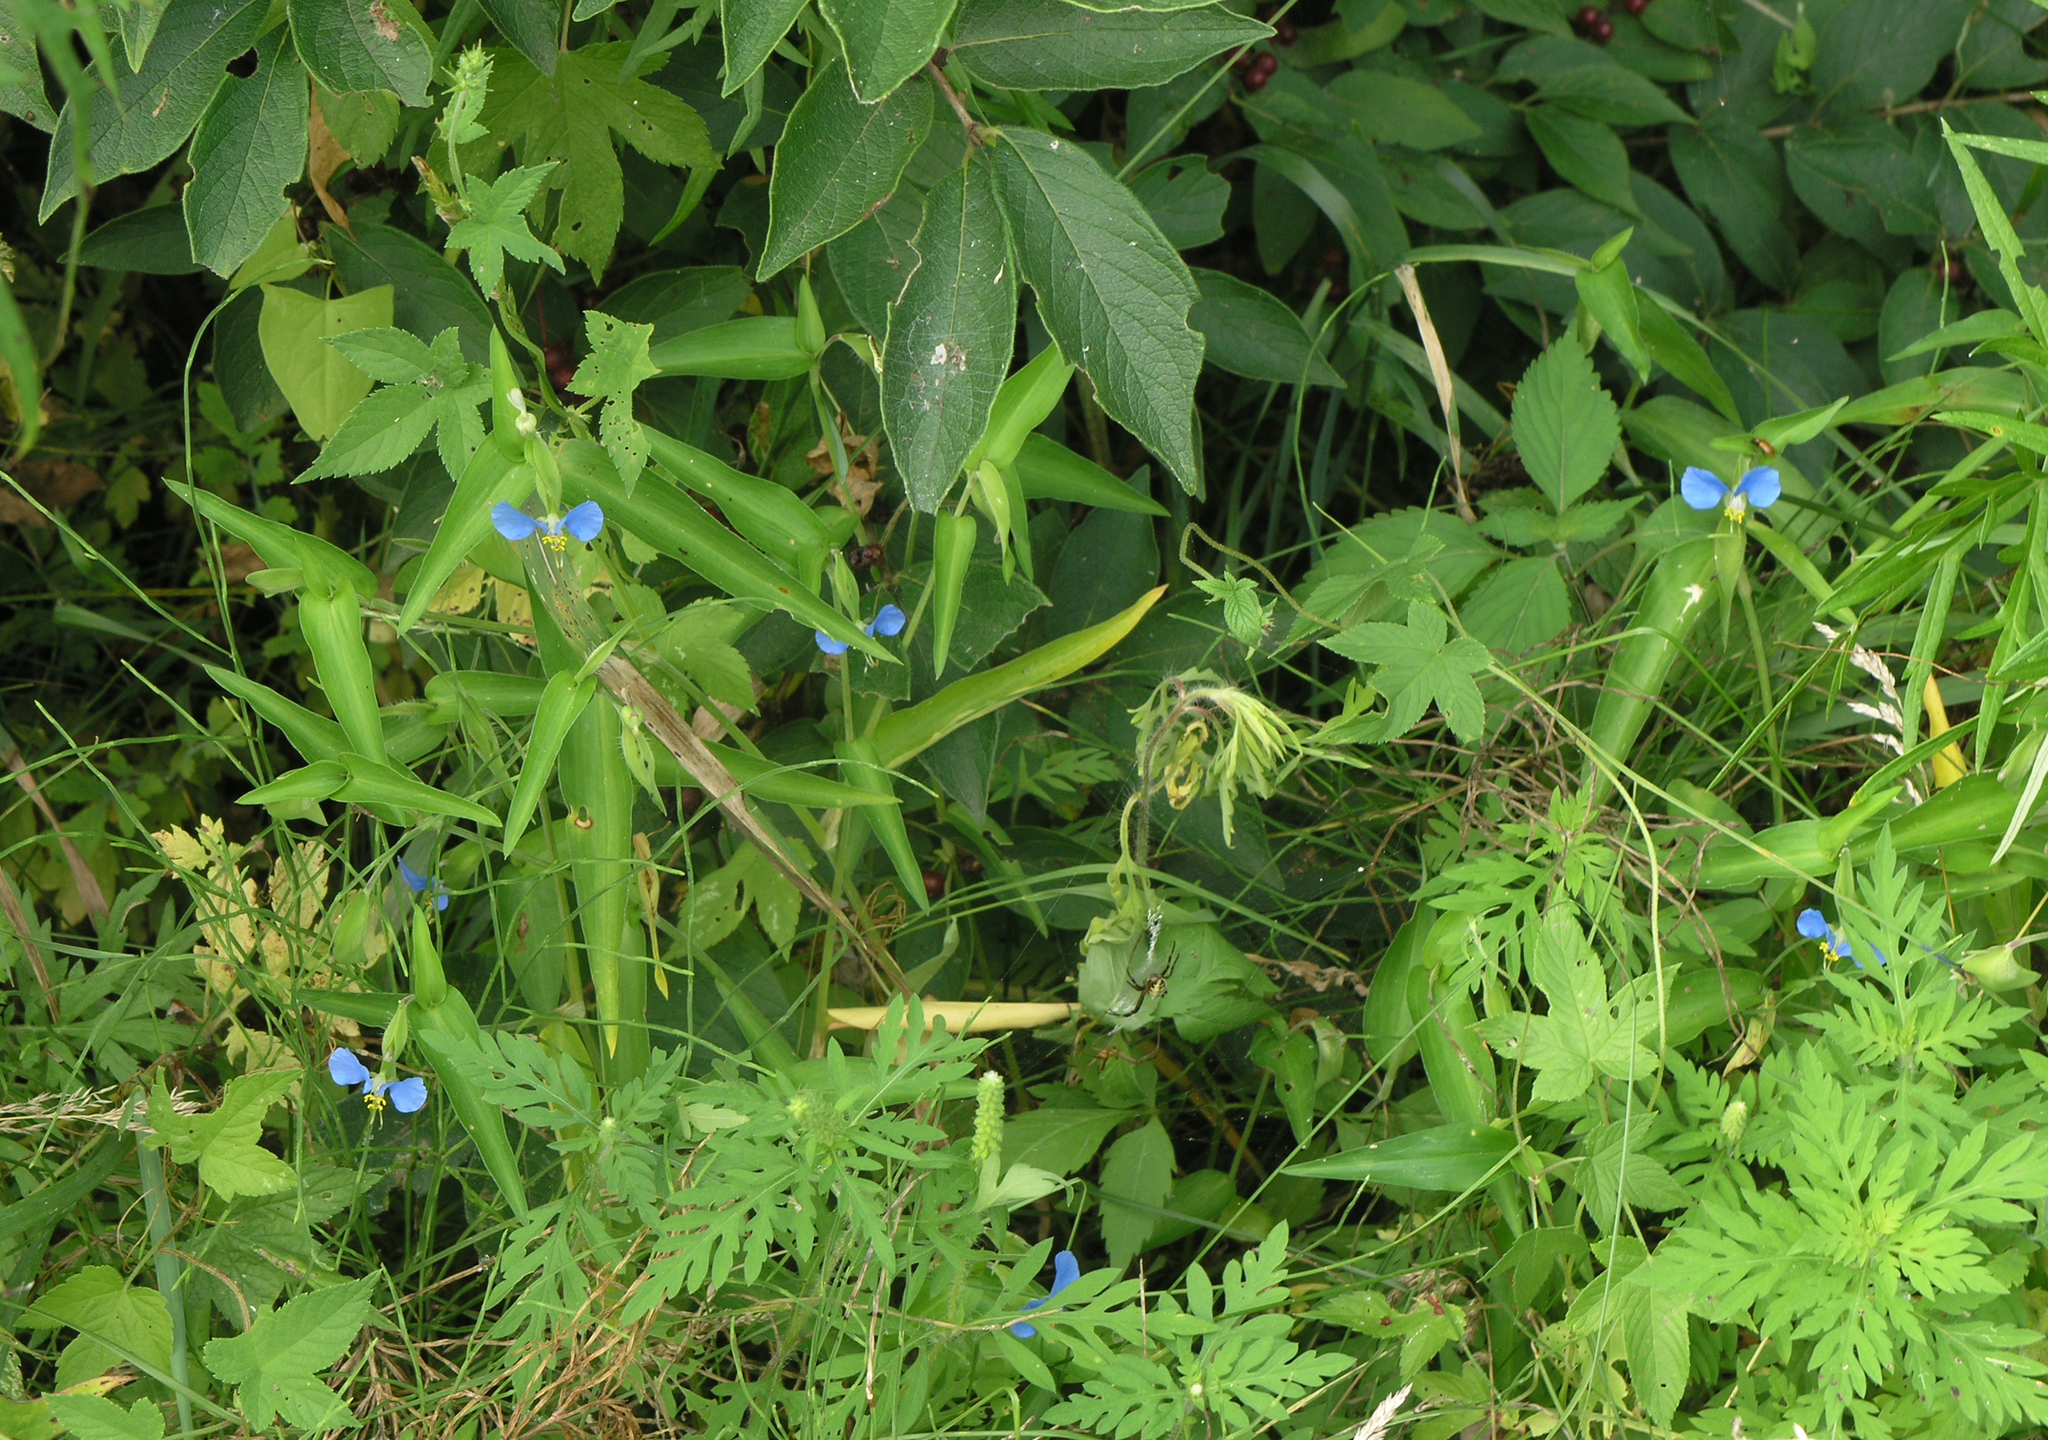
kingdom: Plantae
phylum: Tracheophyta
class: Liliopsida
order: Commelinales
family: Commelinaceae
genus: Commelina
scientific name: Commelina communis
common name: Asiatic dayflower
